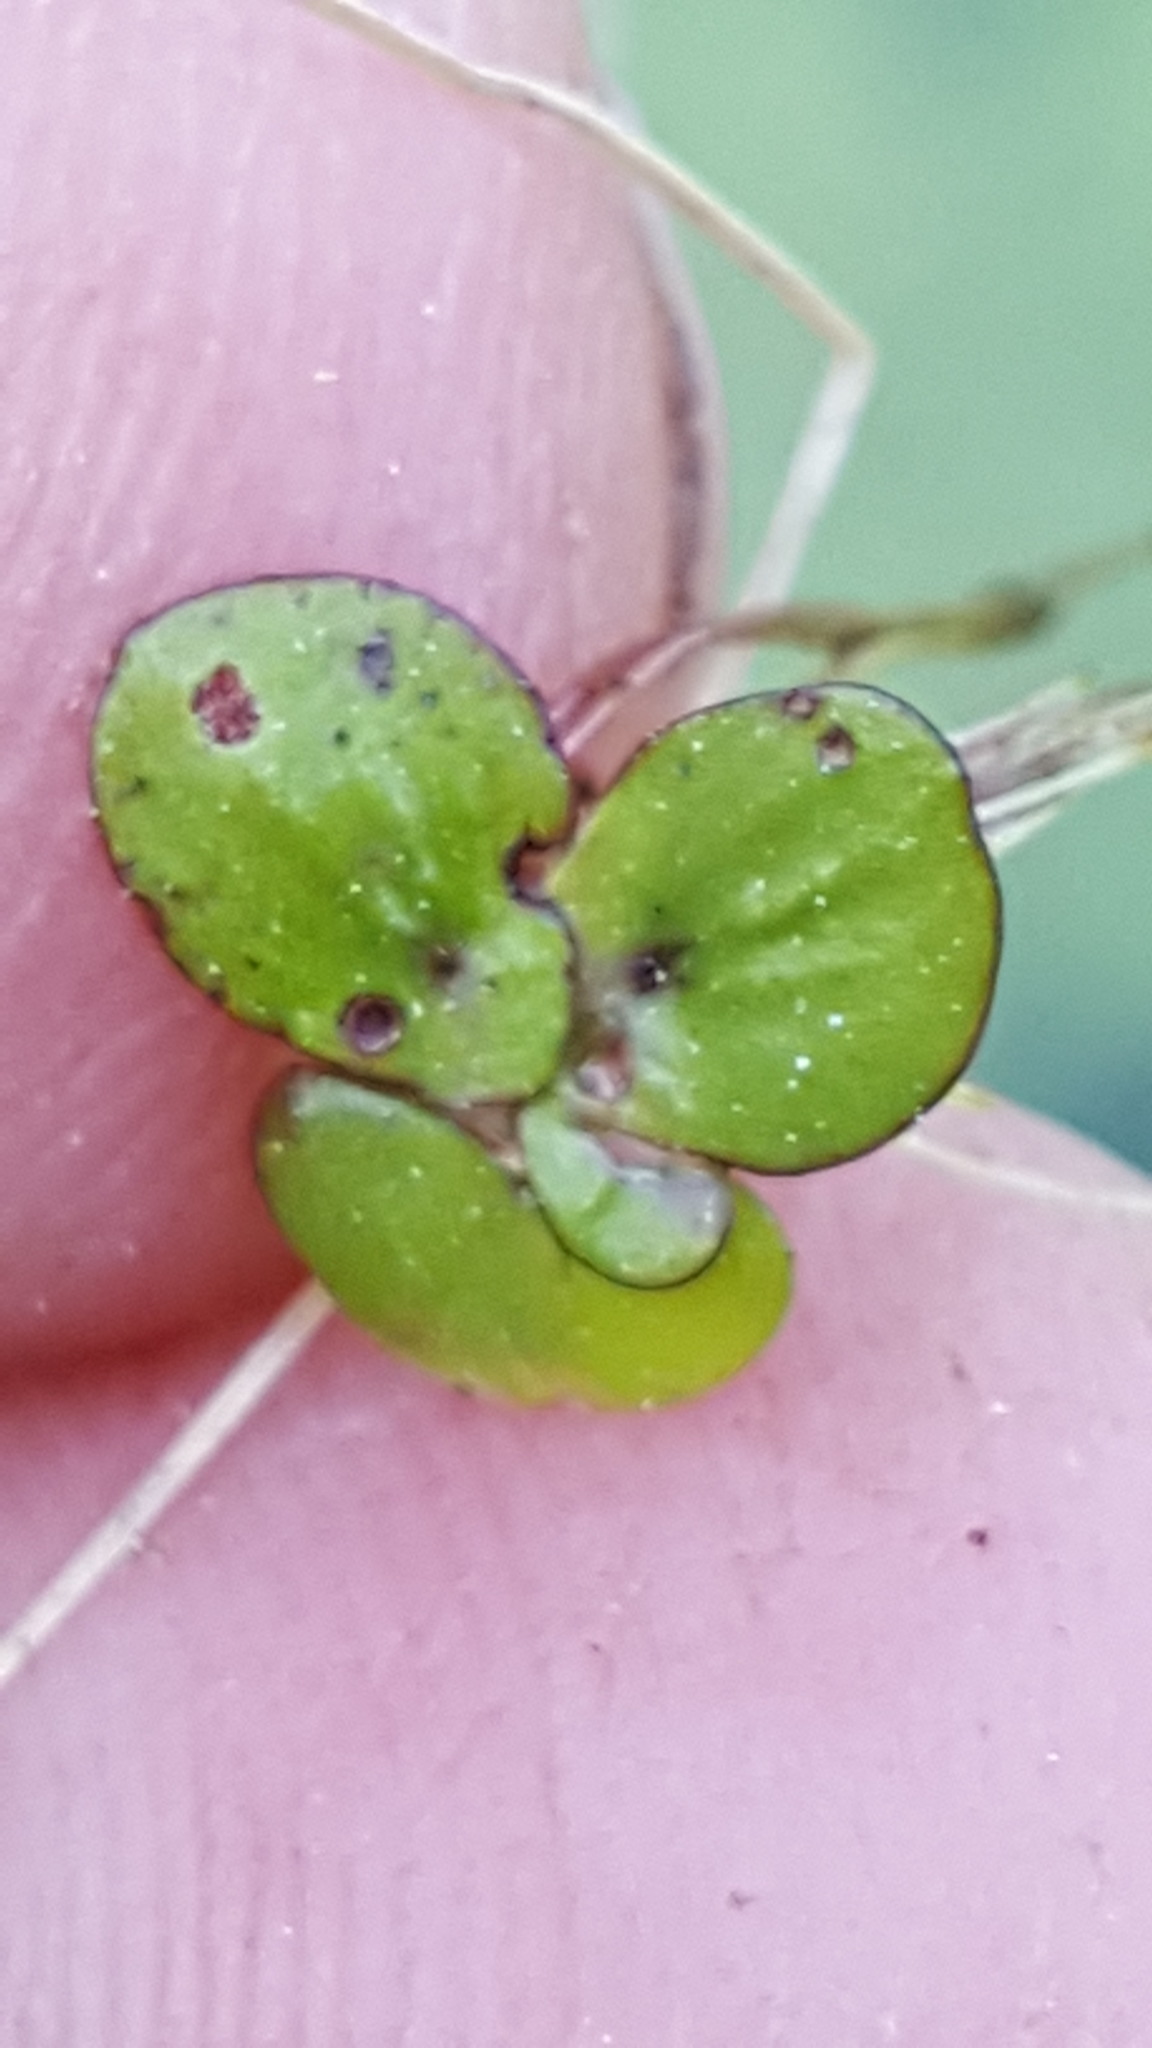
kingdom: Plantae
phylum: Tracheophyta
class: Liliopsida
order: Alismatales
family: Araceae
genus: Spirodela
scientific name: Spirodela polyrhiza
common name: Great duckweed
